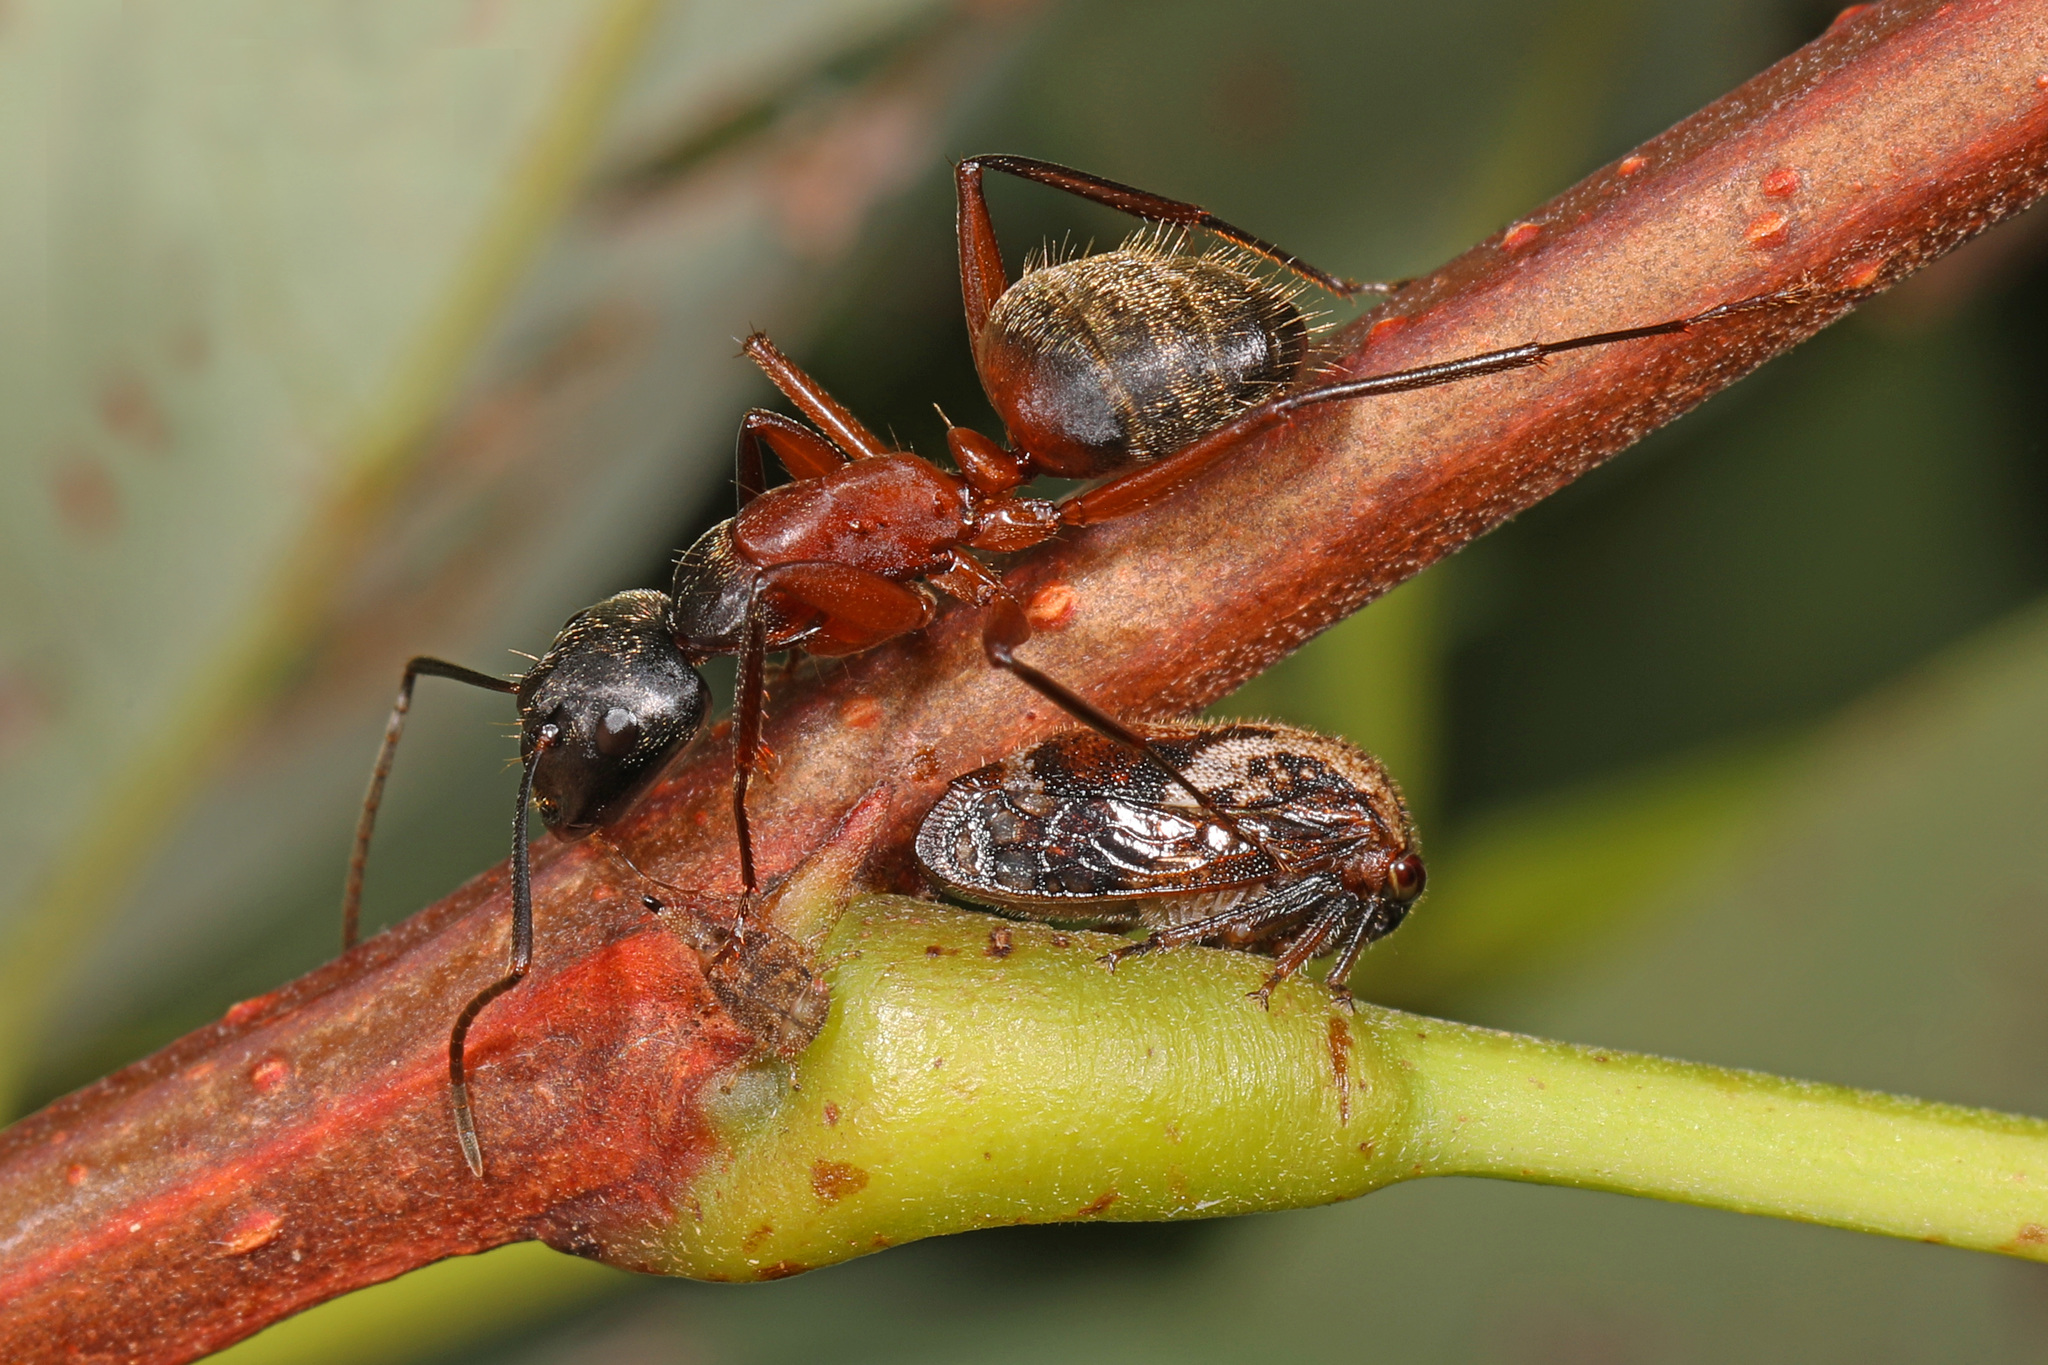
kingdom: Animalia
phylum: Arthropoda
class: Insecta
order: Hemiptera
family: Membracidae
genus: Vanduzea
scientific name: Vanduzea arquata
